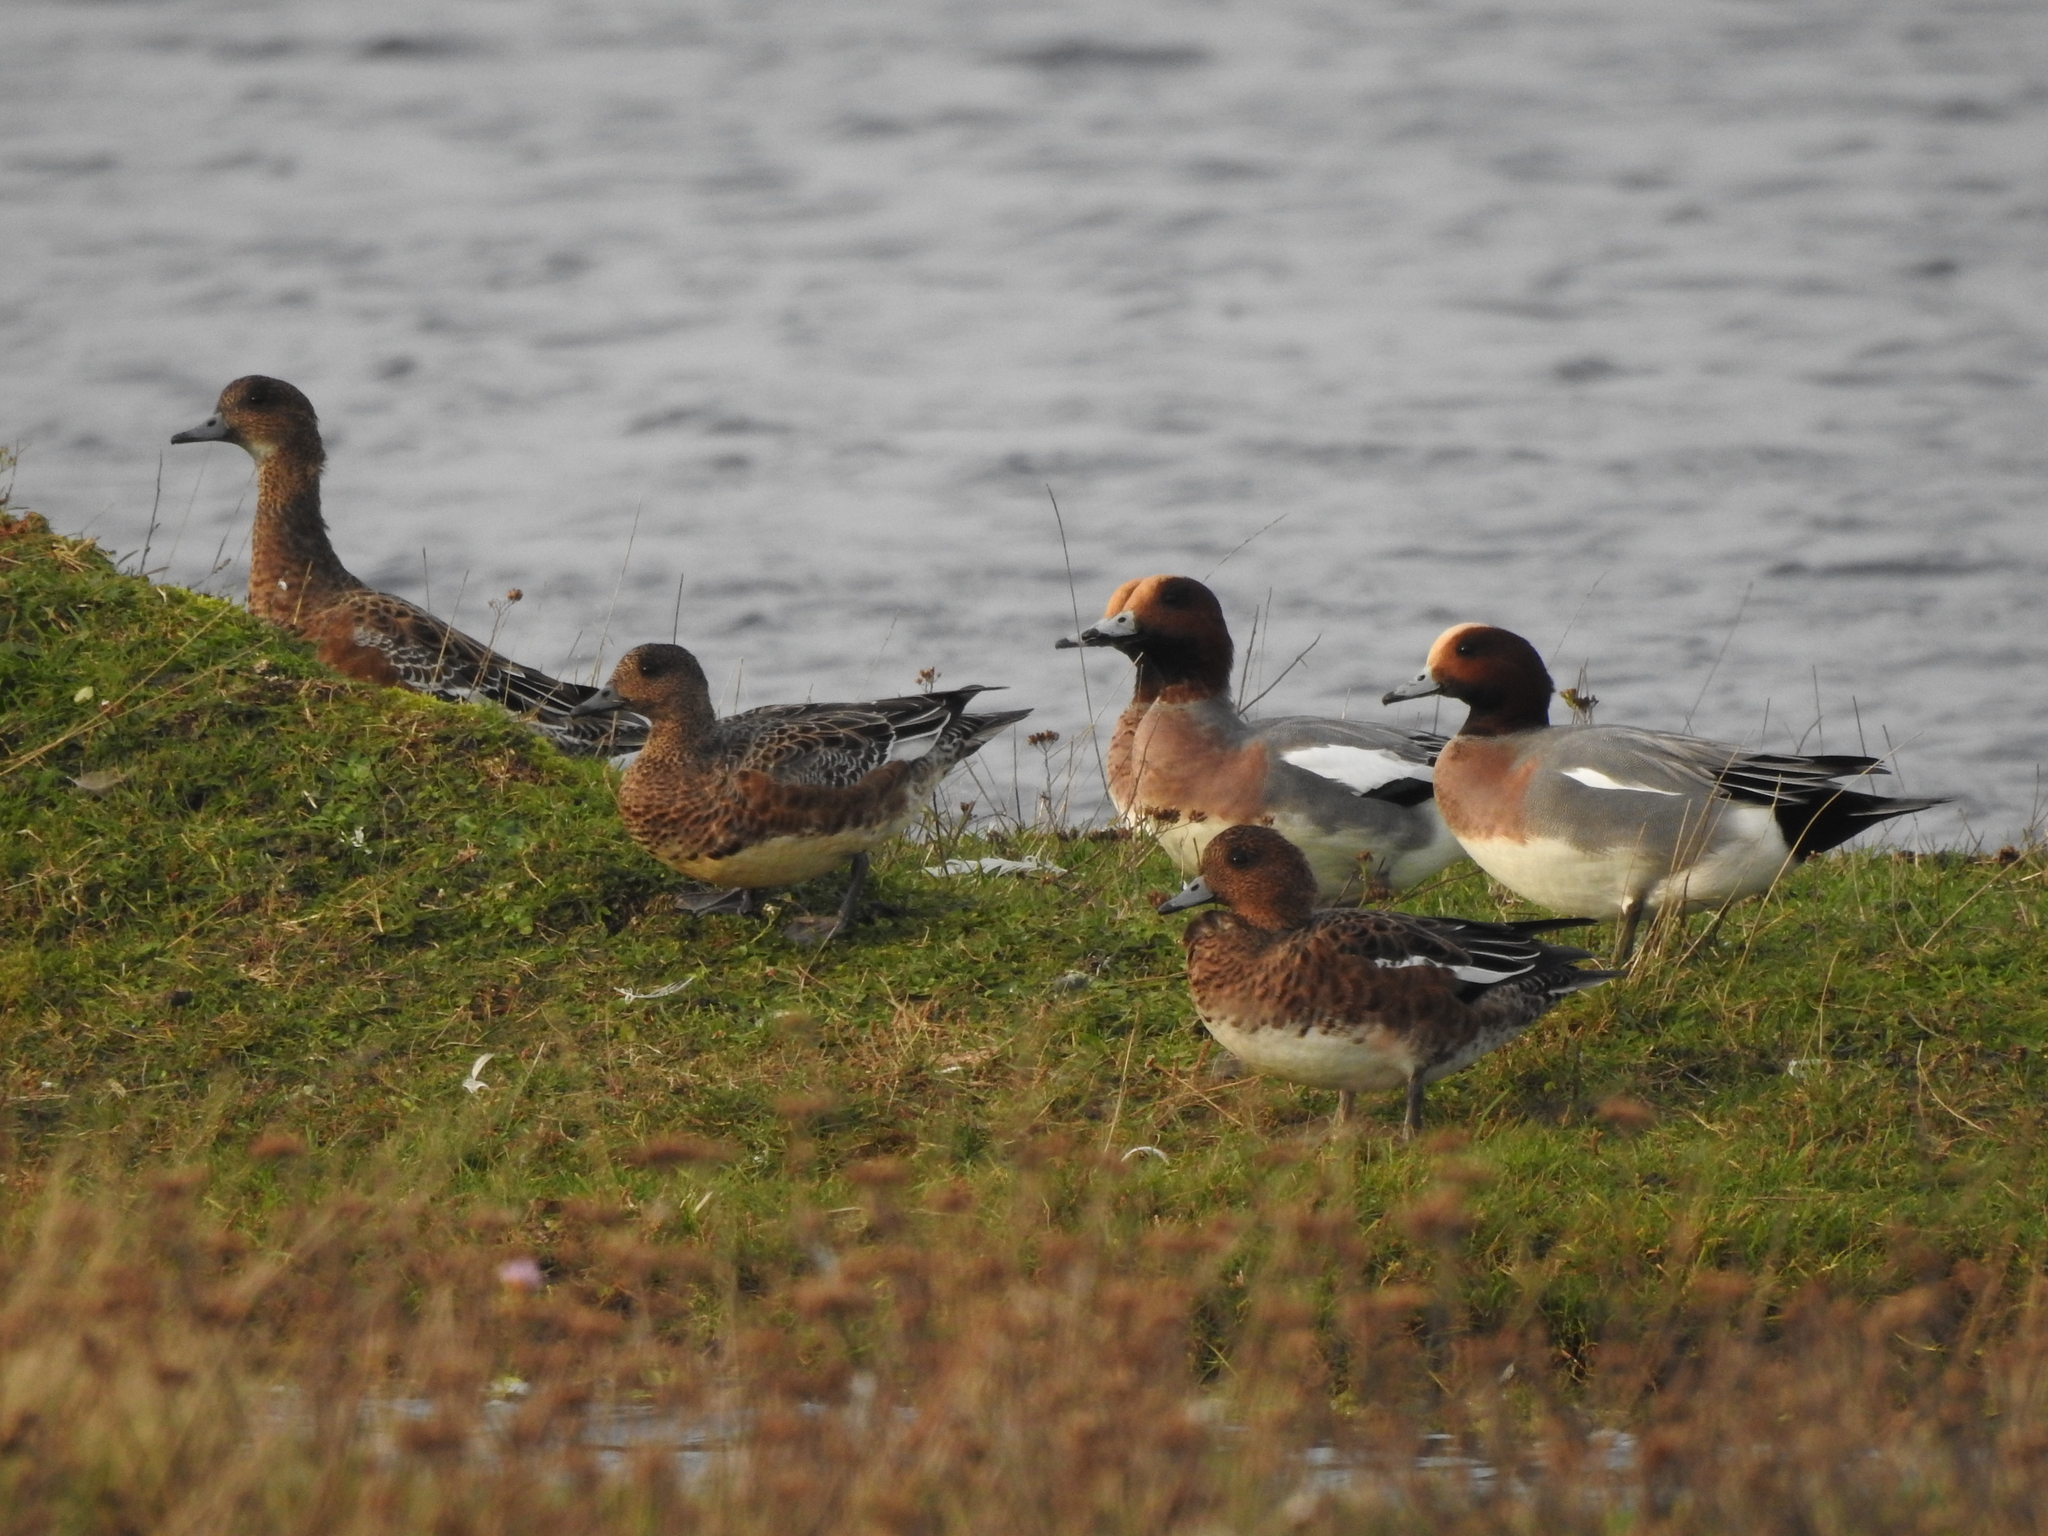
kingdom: Animalia
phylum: Chordata
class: Aves
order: Anseriformes
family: Anatidae
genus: Mareca
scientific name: Mareca penelope
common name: Eurasian wigeon
